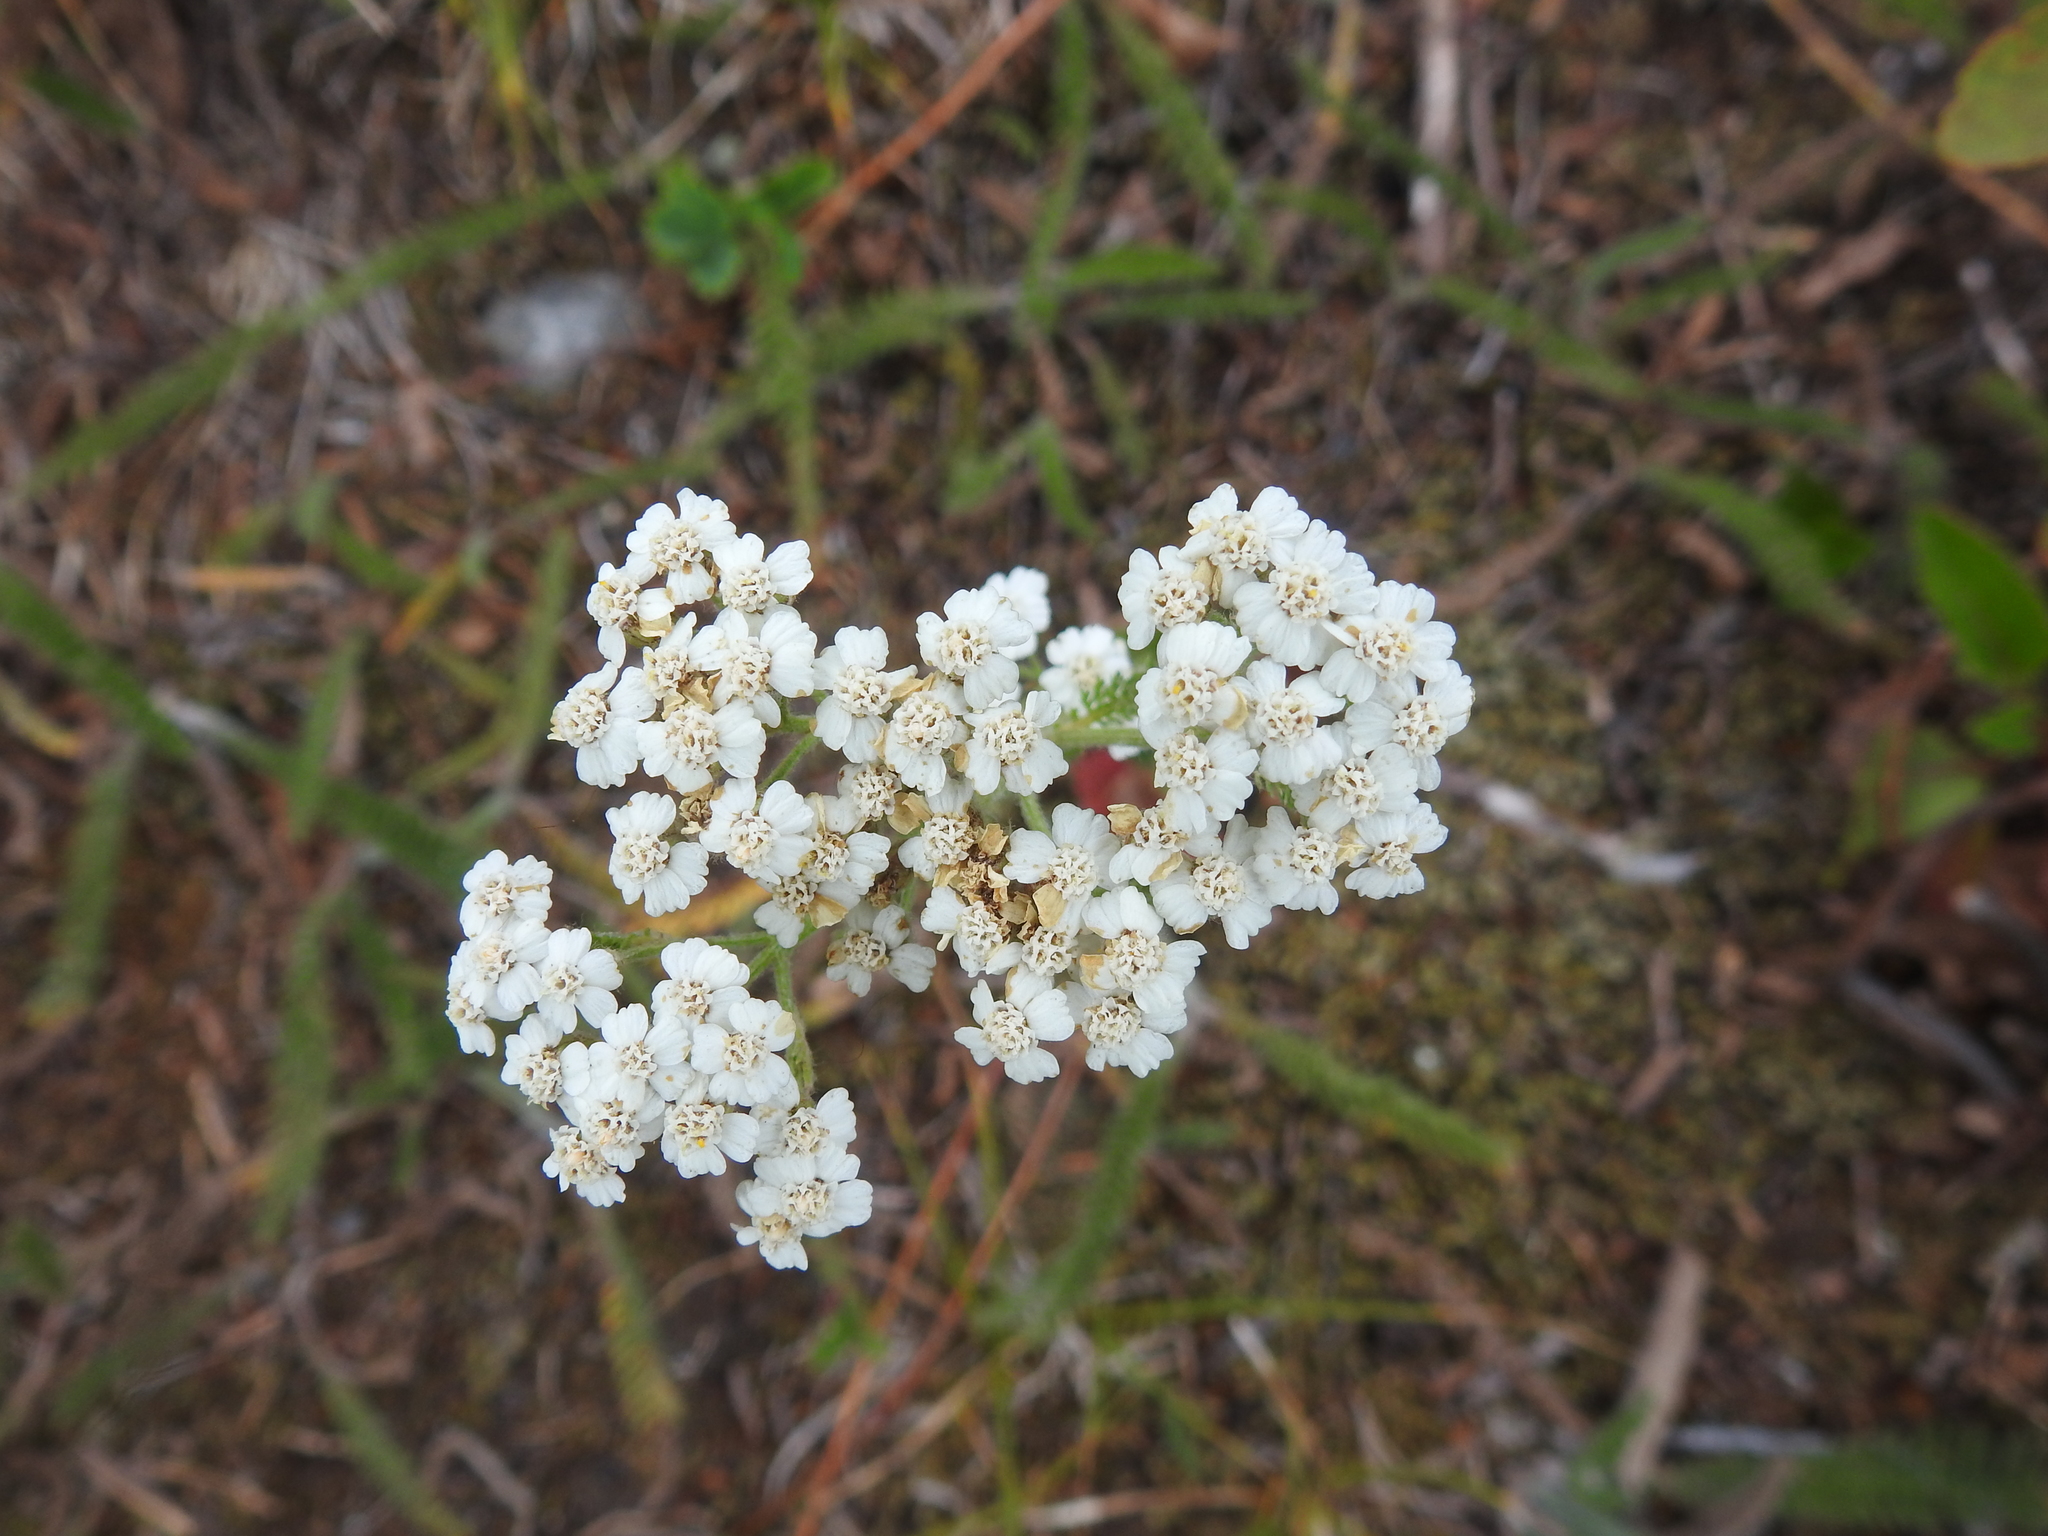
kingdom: Plantae
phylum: Tracheophyta
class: Magnoliopsida
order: Asterales
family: Asteraceae
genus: Achillea
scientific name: Achillea millefolium
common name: Yarrow
